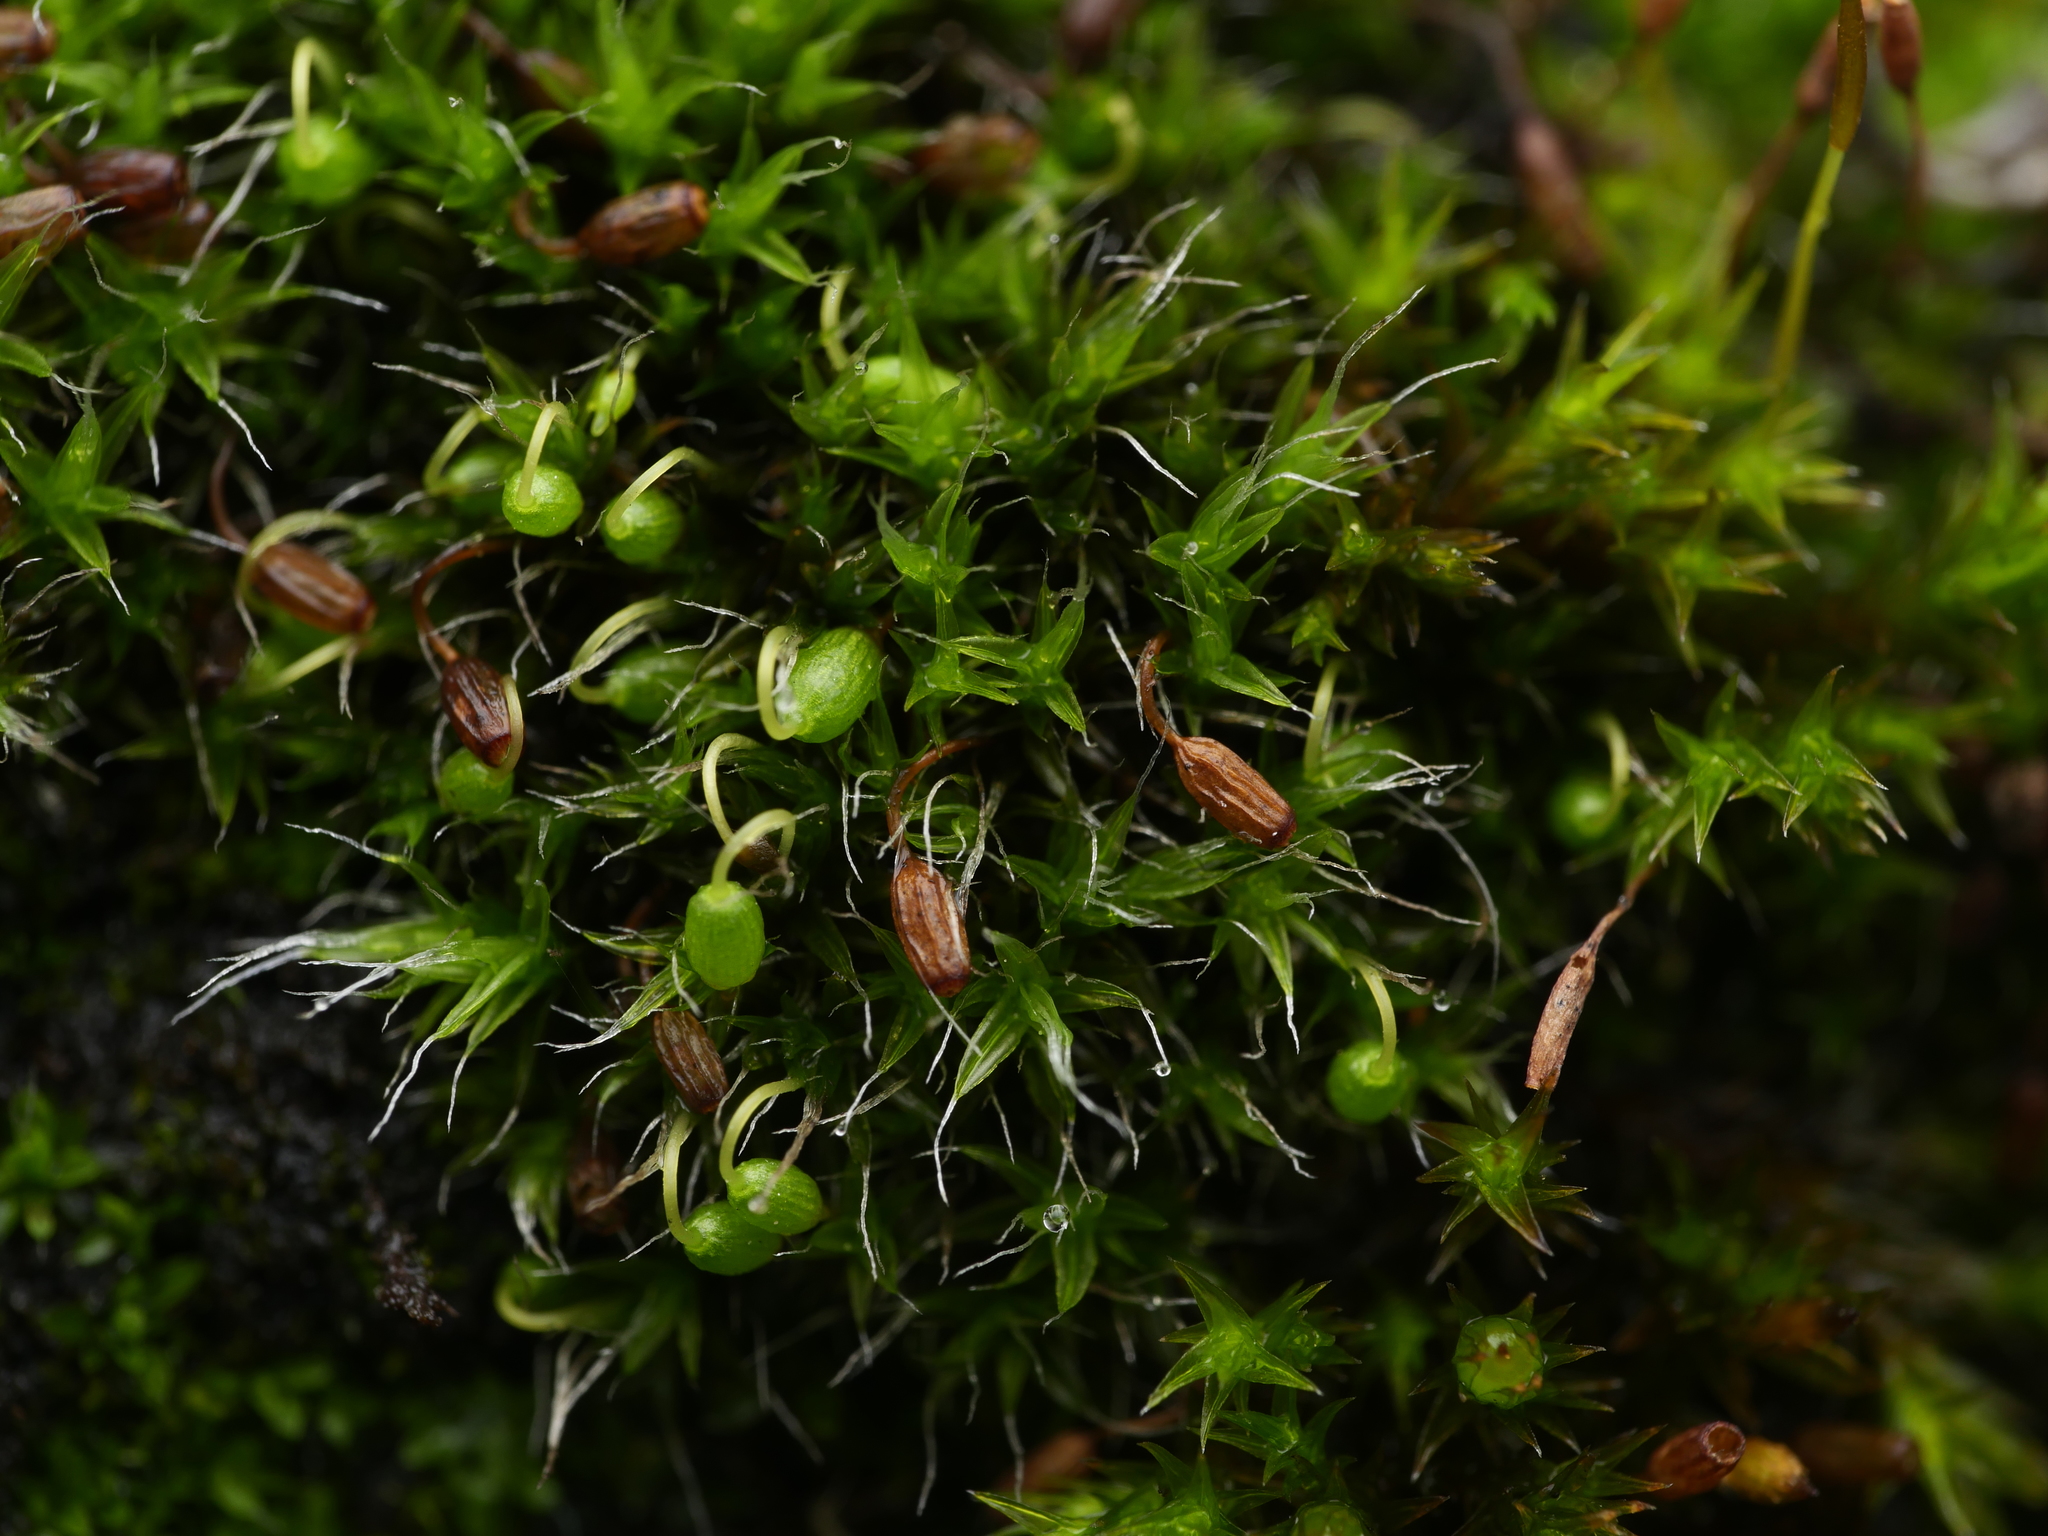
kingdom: Plantae
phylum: Bryophyta
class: Bryopsida
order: Grimmiales
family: Grimmiaceae
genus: Grimmia
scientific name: Grimmia pulvinata
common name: Grey-cushioned grimmia
